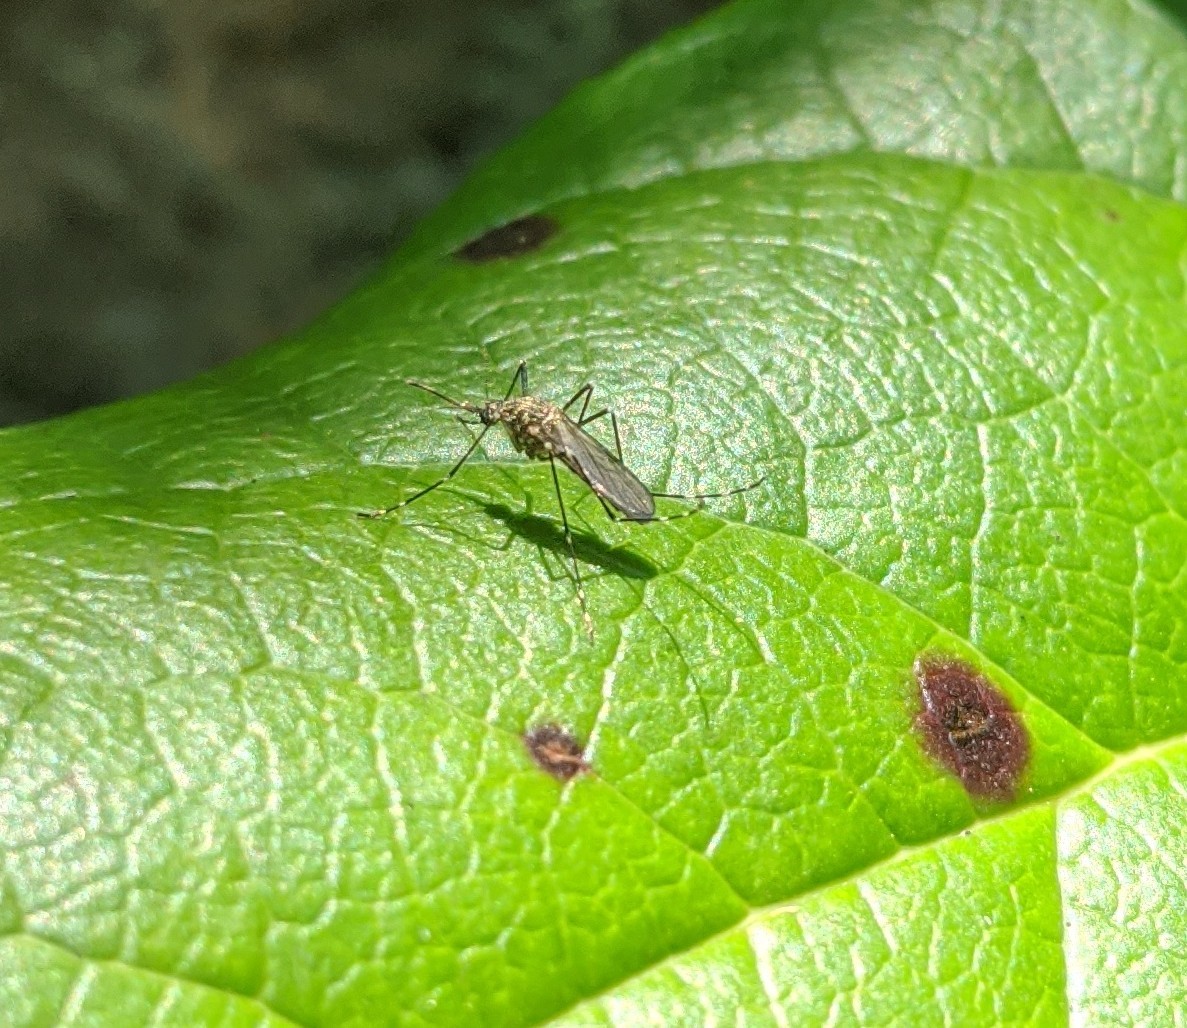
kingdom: Animalia
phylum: Arthropoda
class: Insecta
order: Diptera
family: Culicidae
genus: Aedes
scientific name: Aedes togoi
